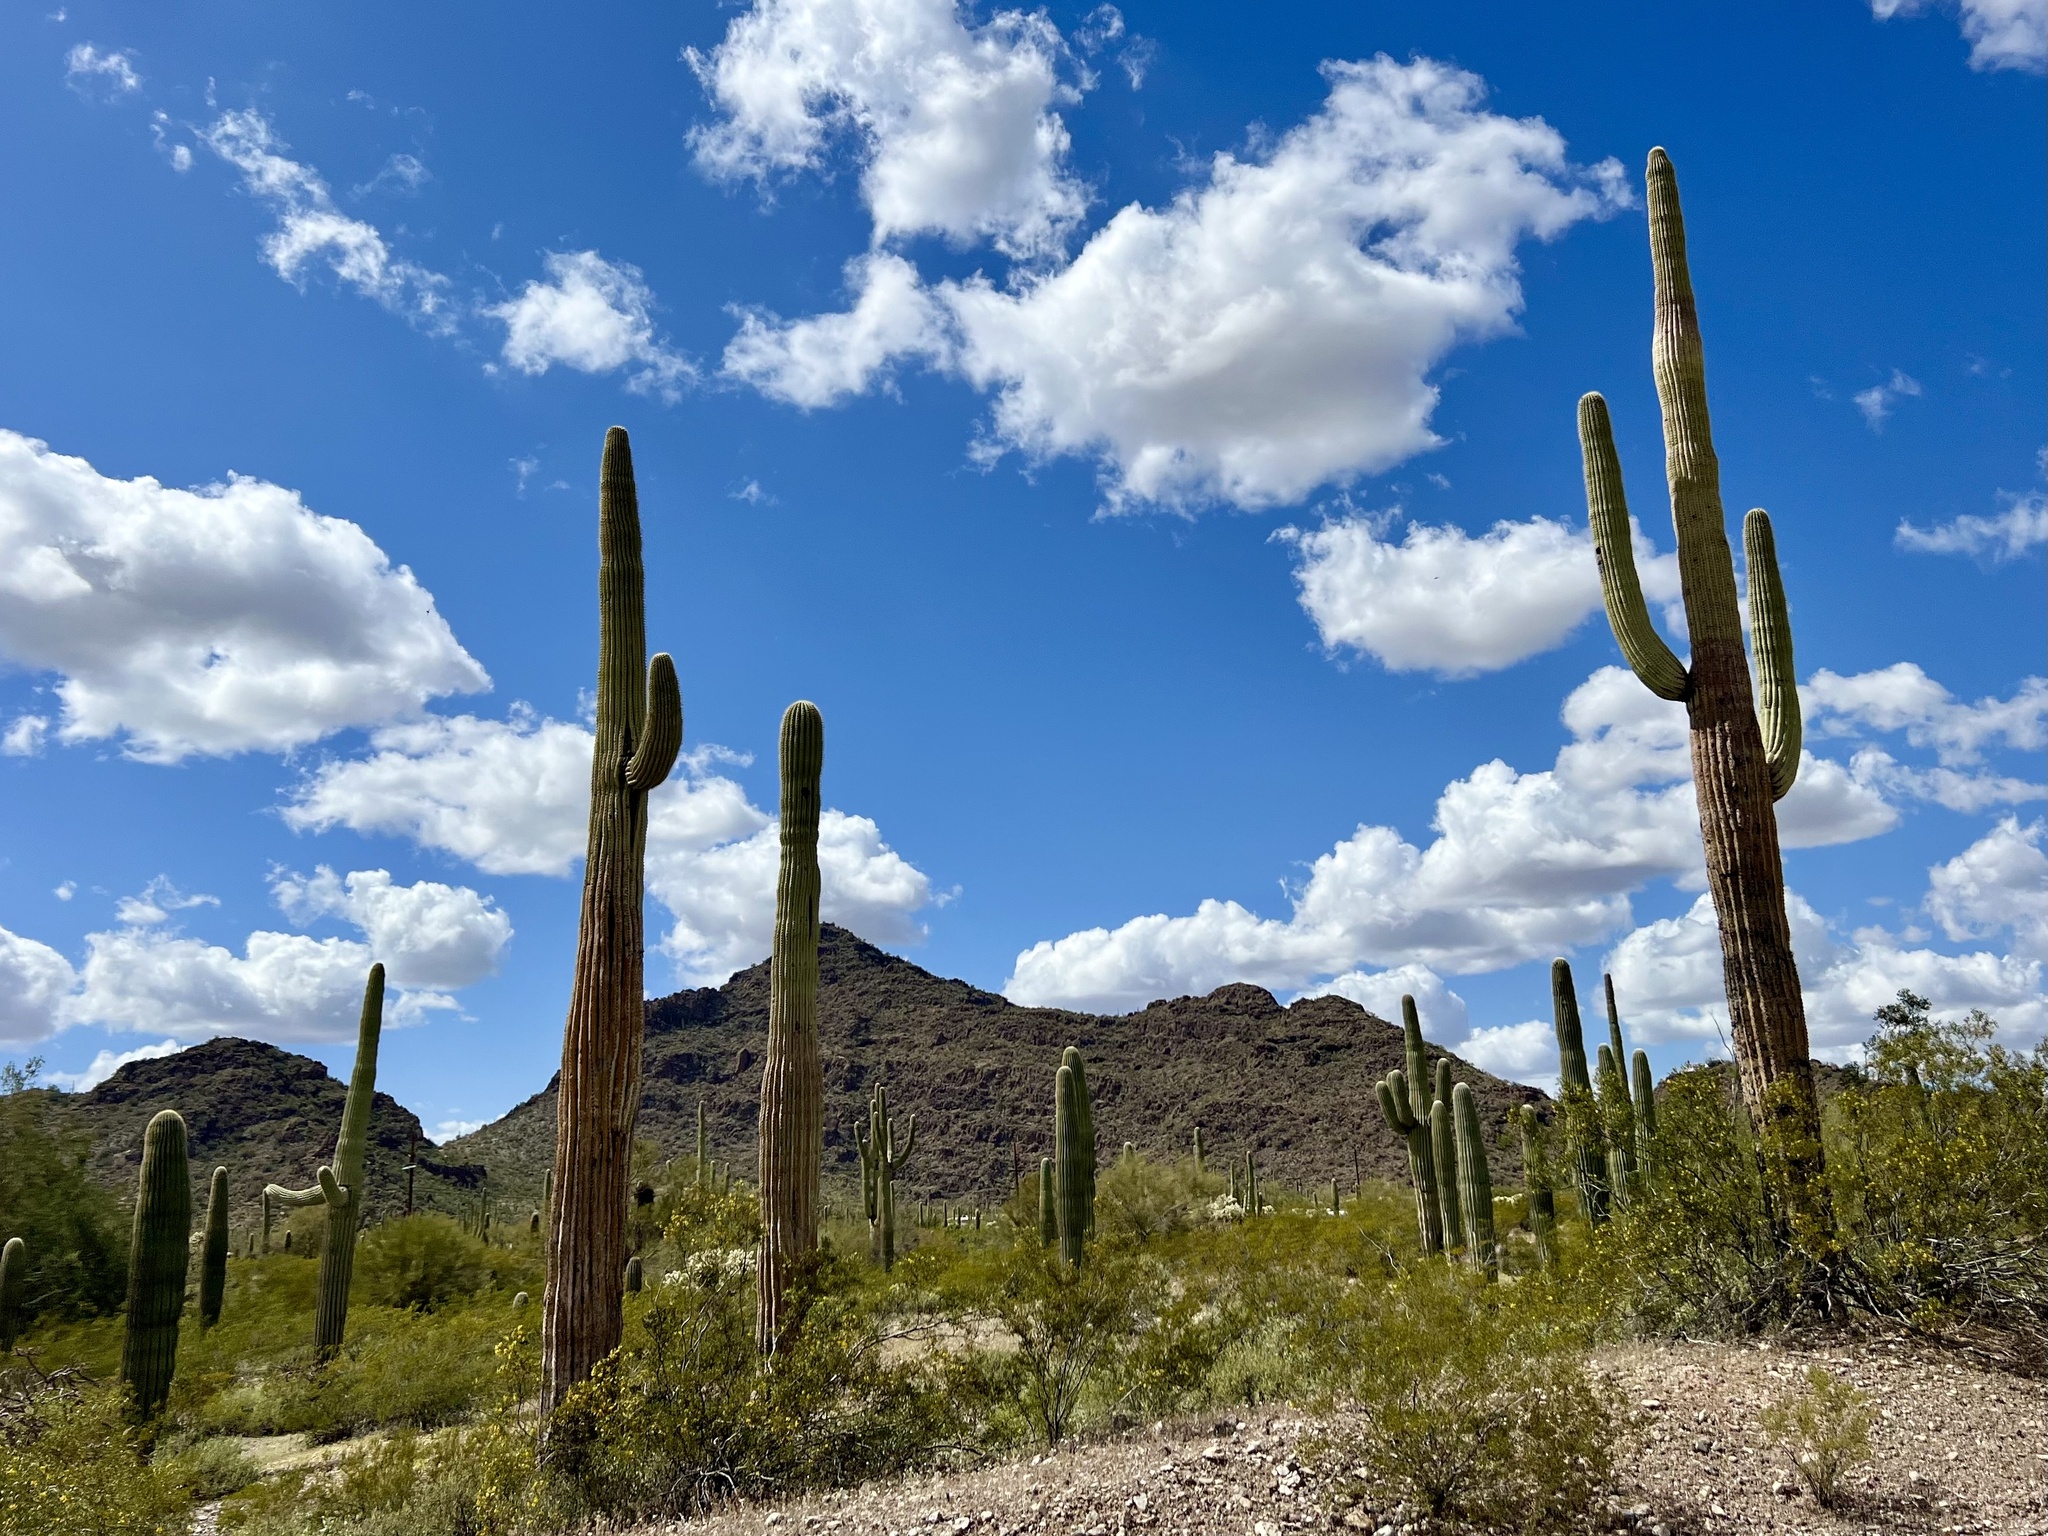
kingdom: Plantae
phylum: Tracheophyta
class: Magnoliopsida
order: Caryophyllales
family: Cactaceae
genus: Carnegiea
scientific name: Carnegiea gigantea
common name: Saguaro
